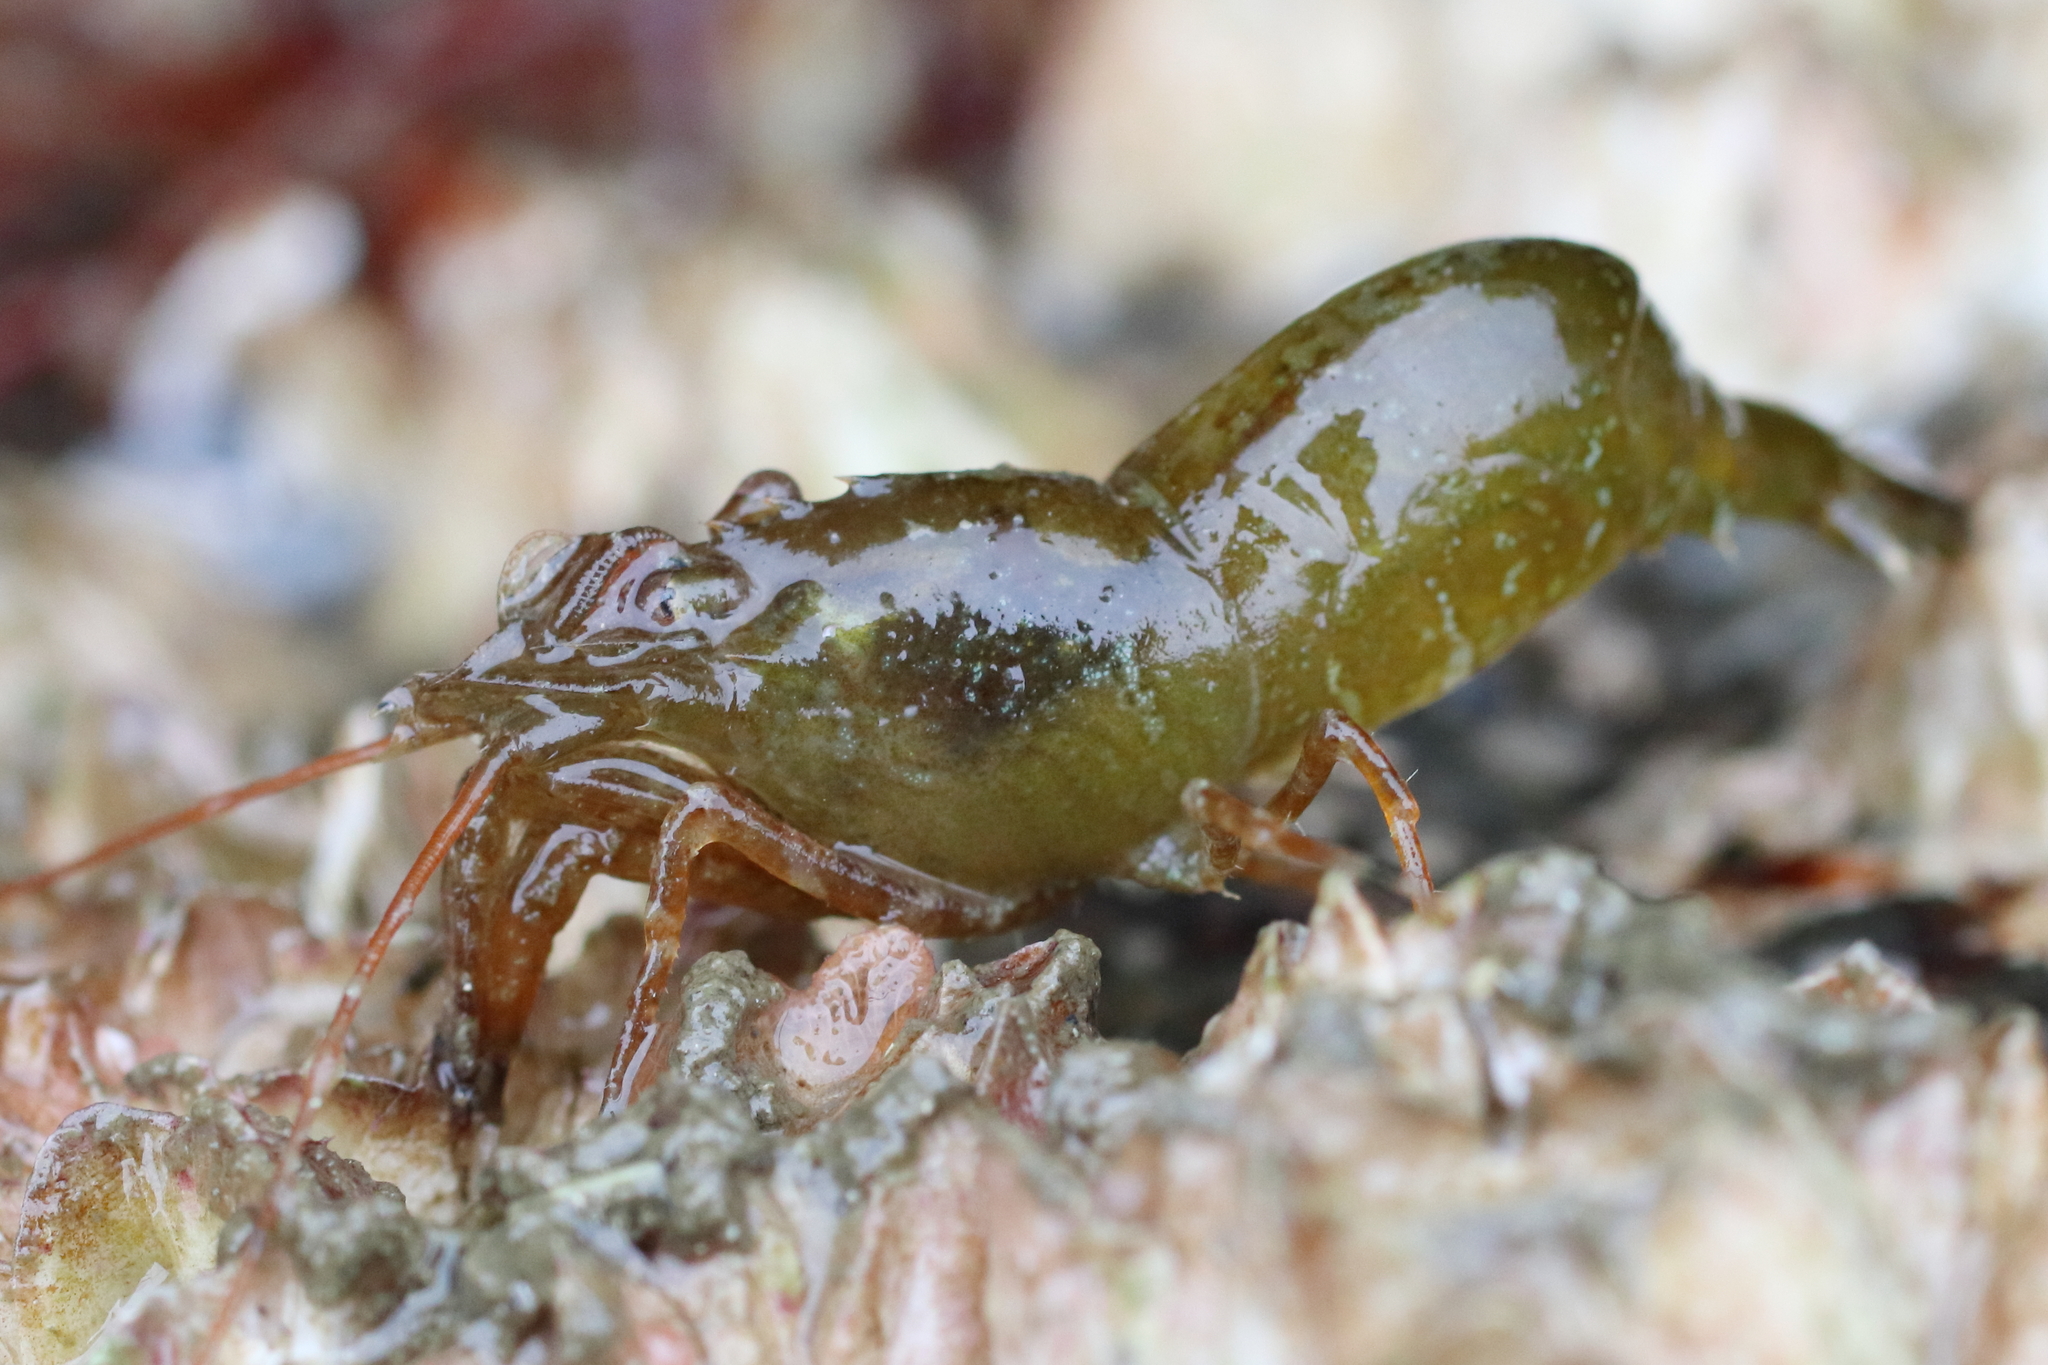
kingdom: Animalia
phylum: Arthropoda
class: Malacostraca
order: Decapoda
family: Thoridae
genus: Heptacarpus
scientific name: Heptacarpus brevirostris
